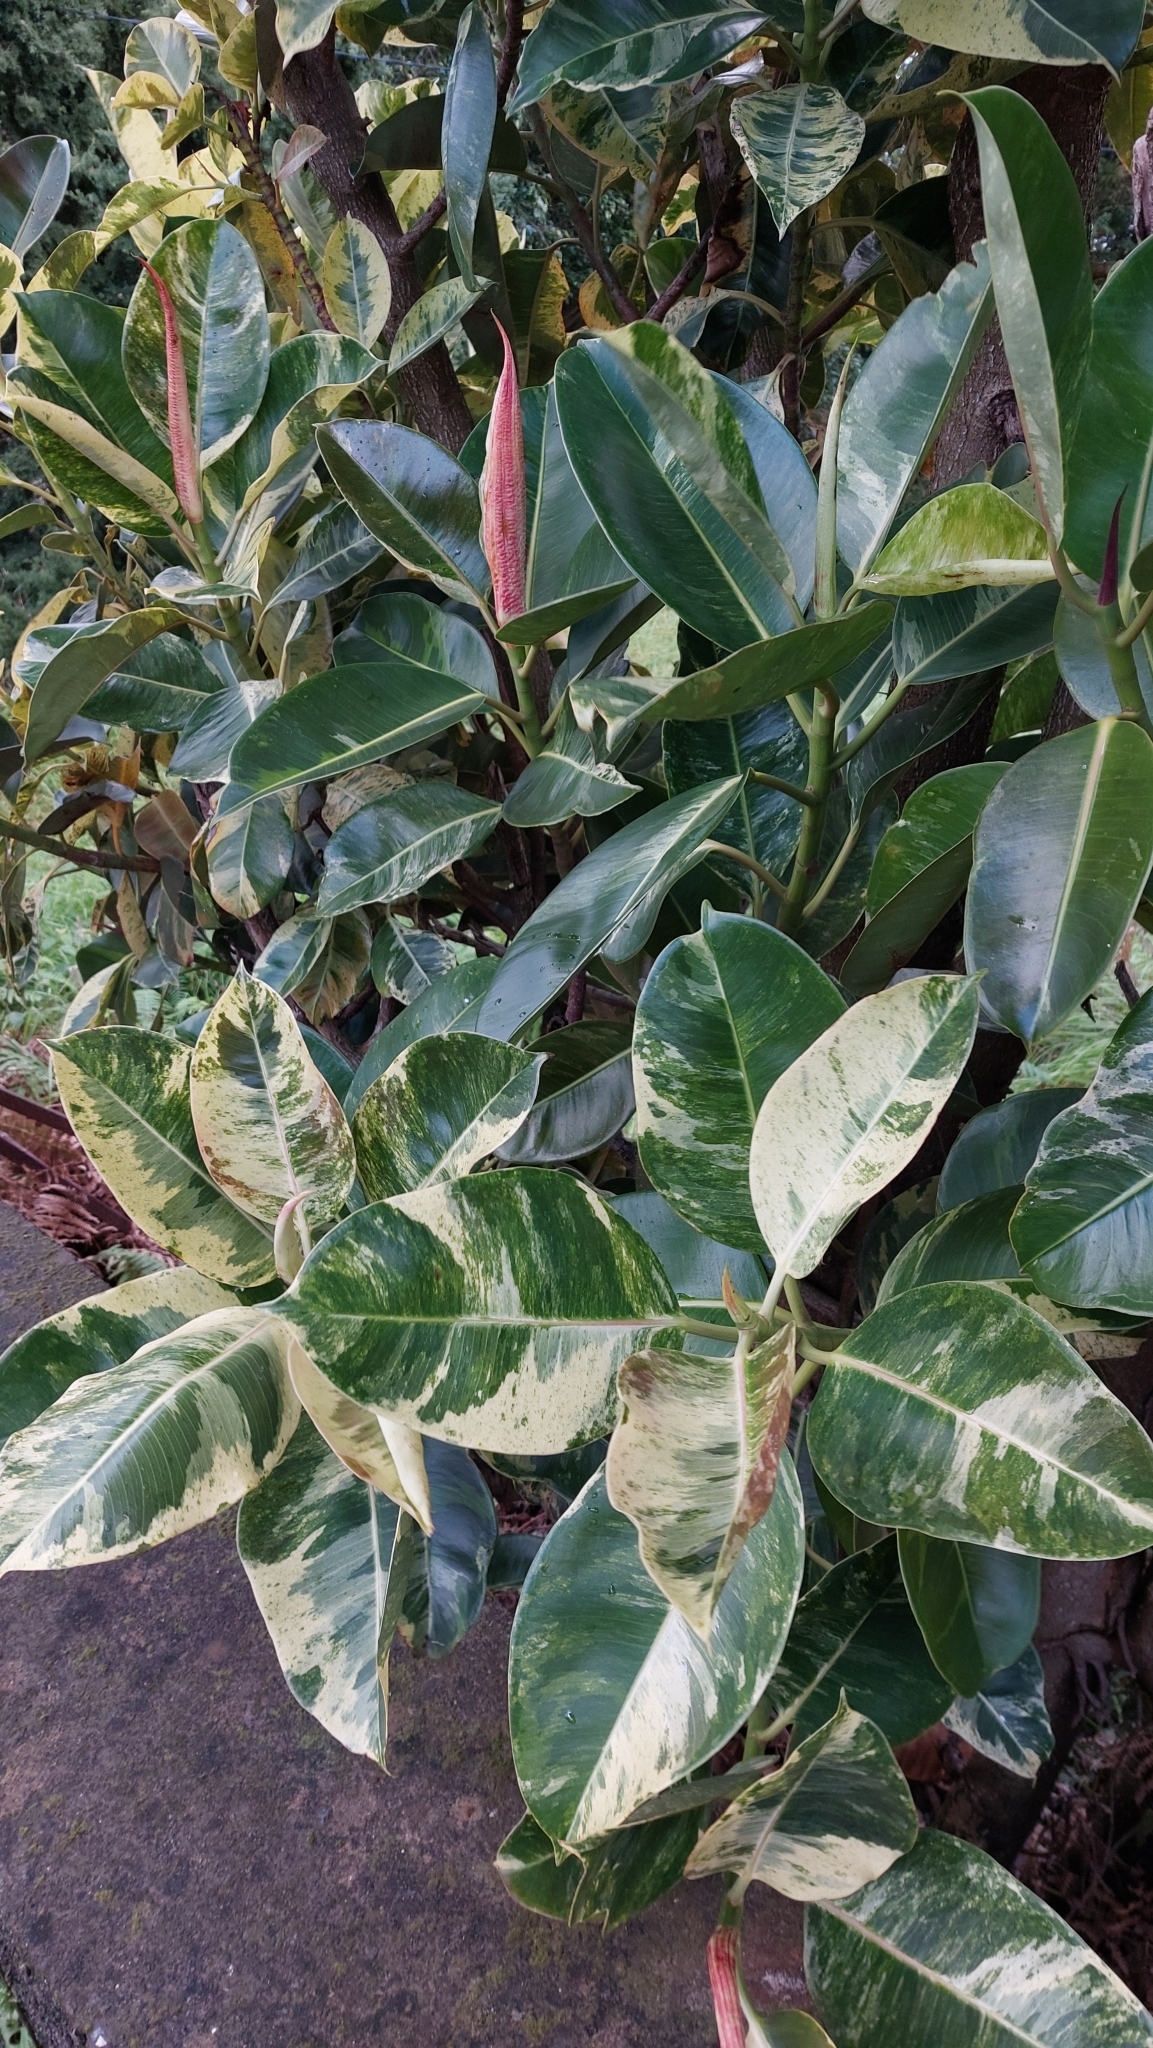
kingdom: Plantae
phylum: Tracheophyta
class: Magnoliopsida
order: Rosales
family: Moraceae
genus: Ficus
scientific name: Ficus elastica
